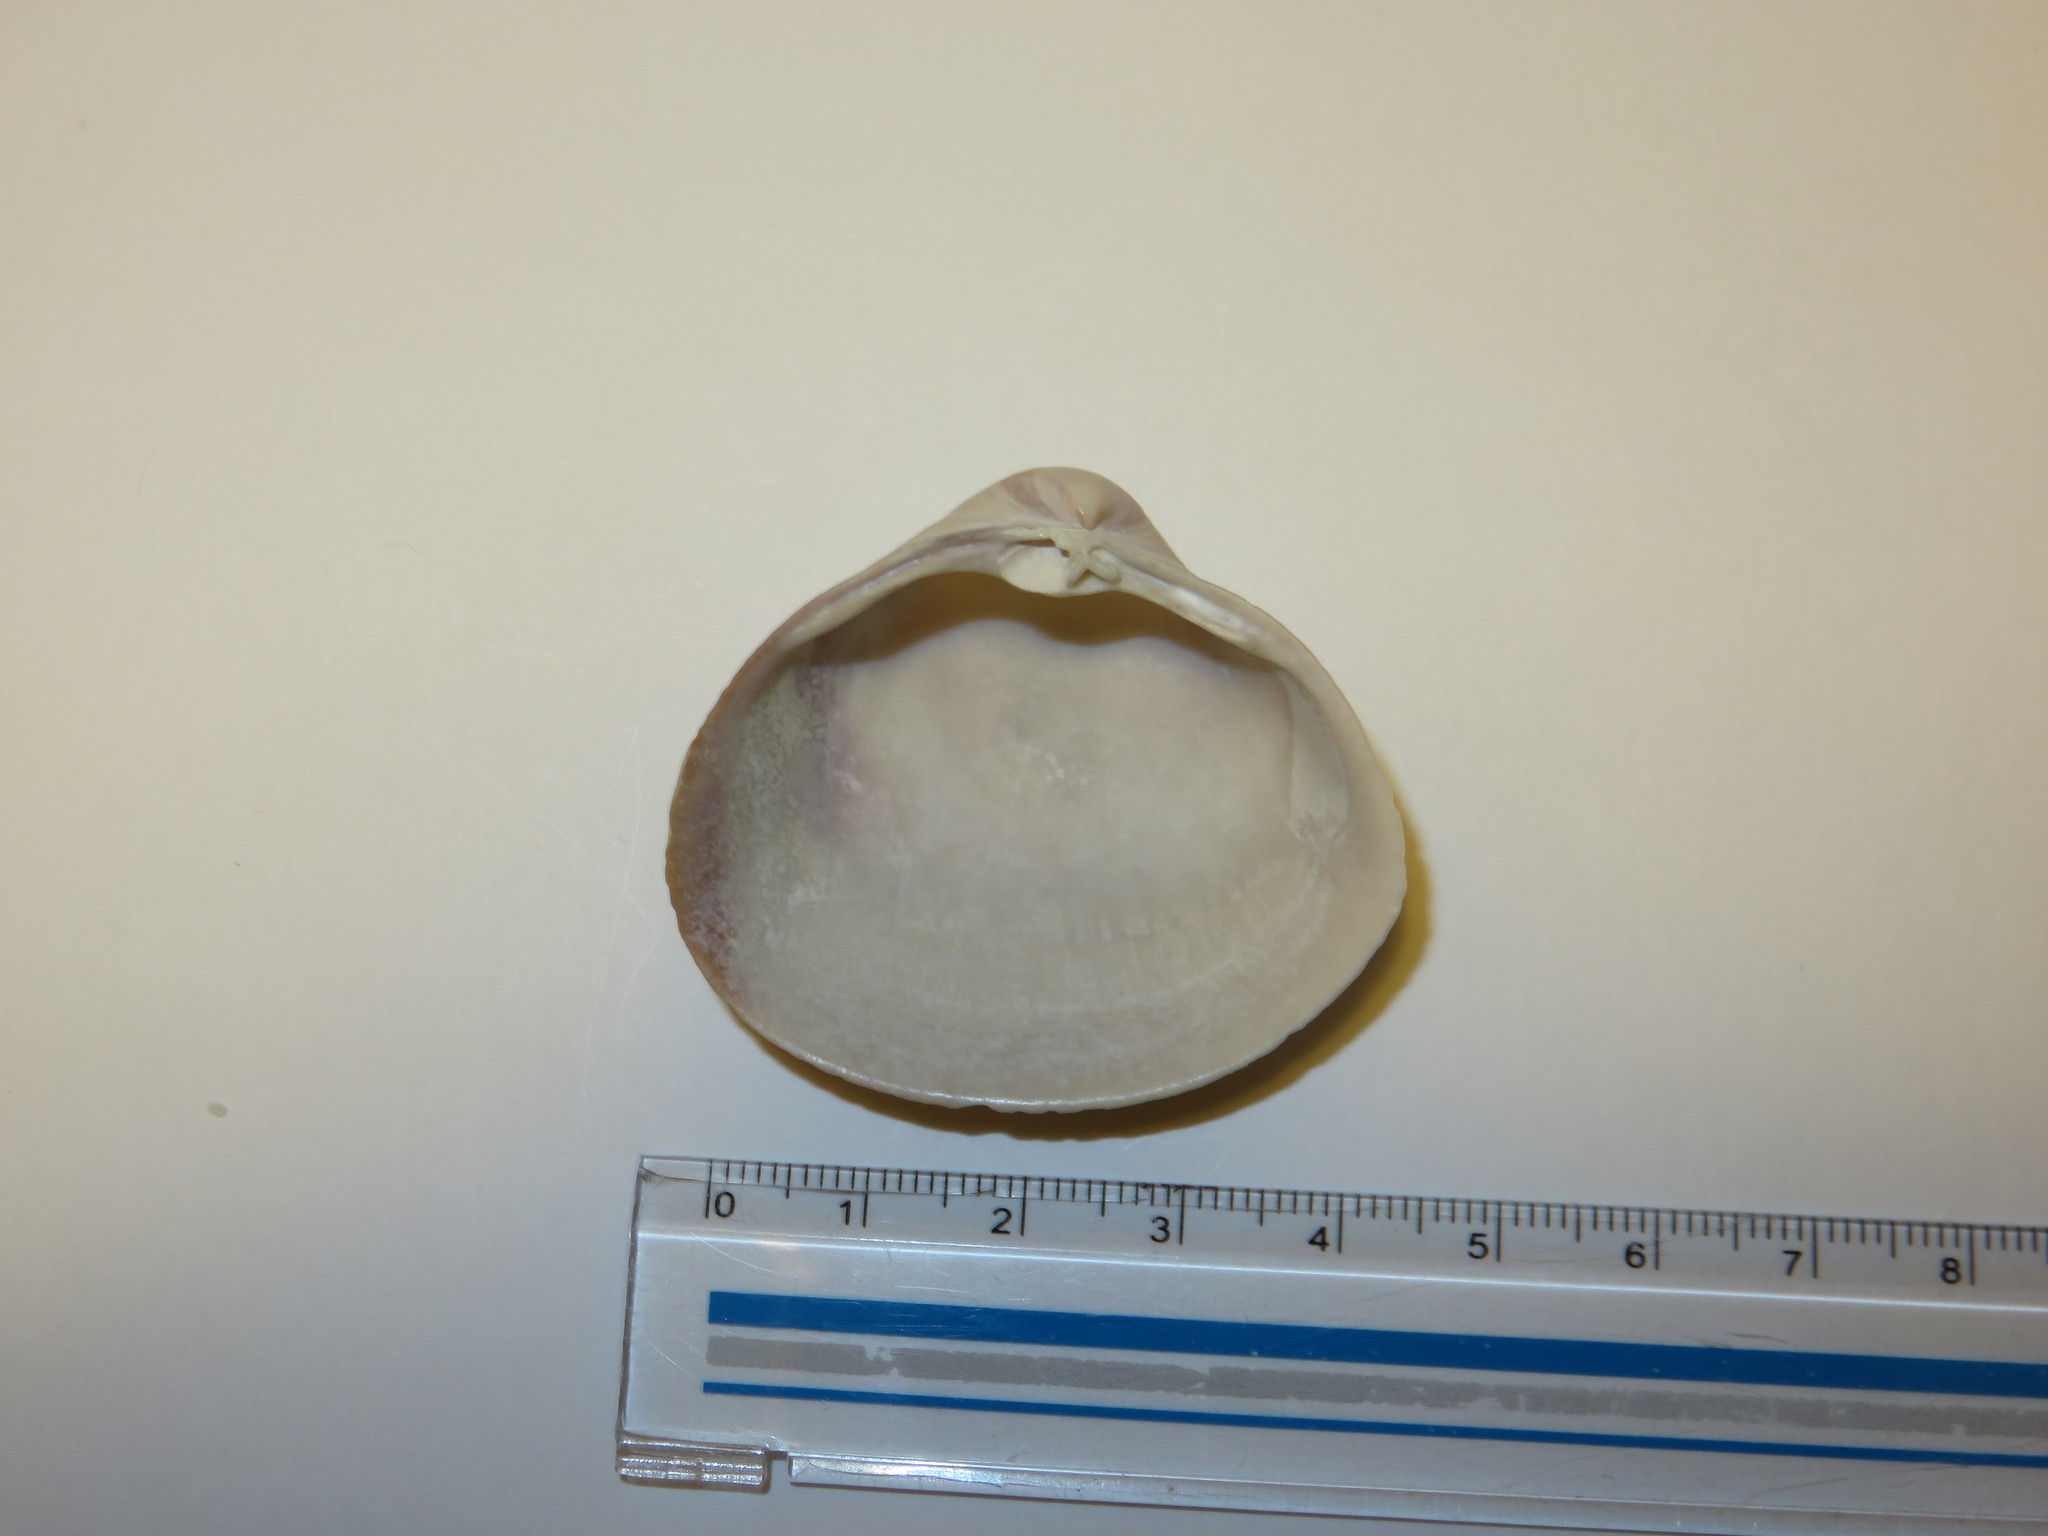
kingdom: Animalia
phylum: Mollusca
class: Bivalvia
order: Venerida
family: Mactridae
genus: Mactra
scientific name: Mactra quadrangularis
